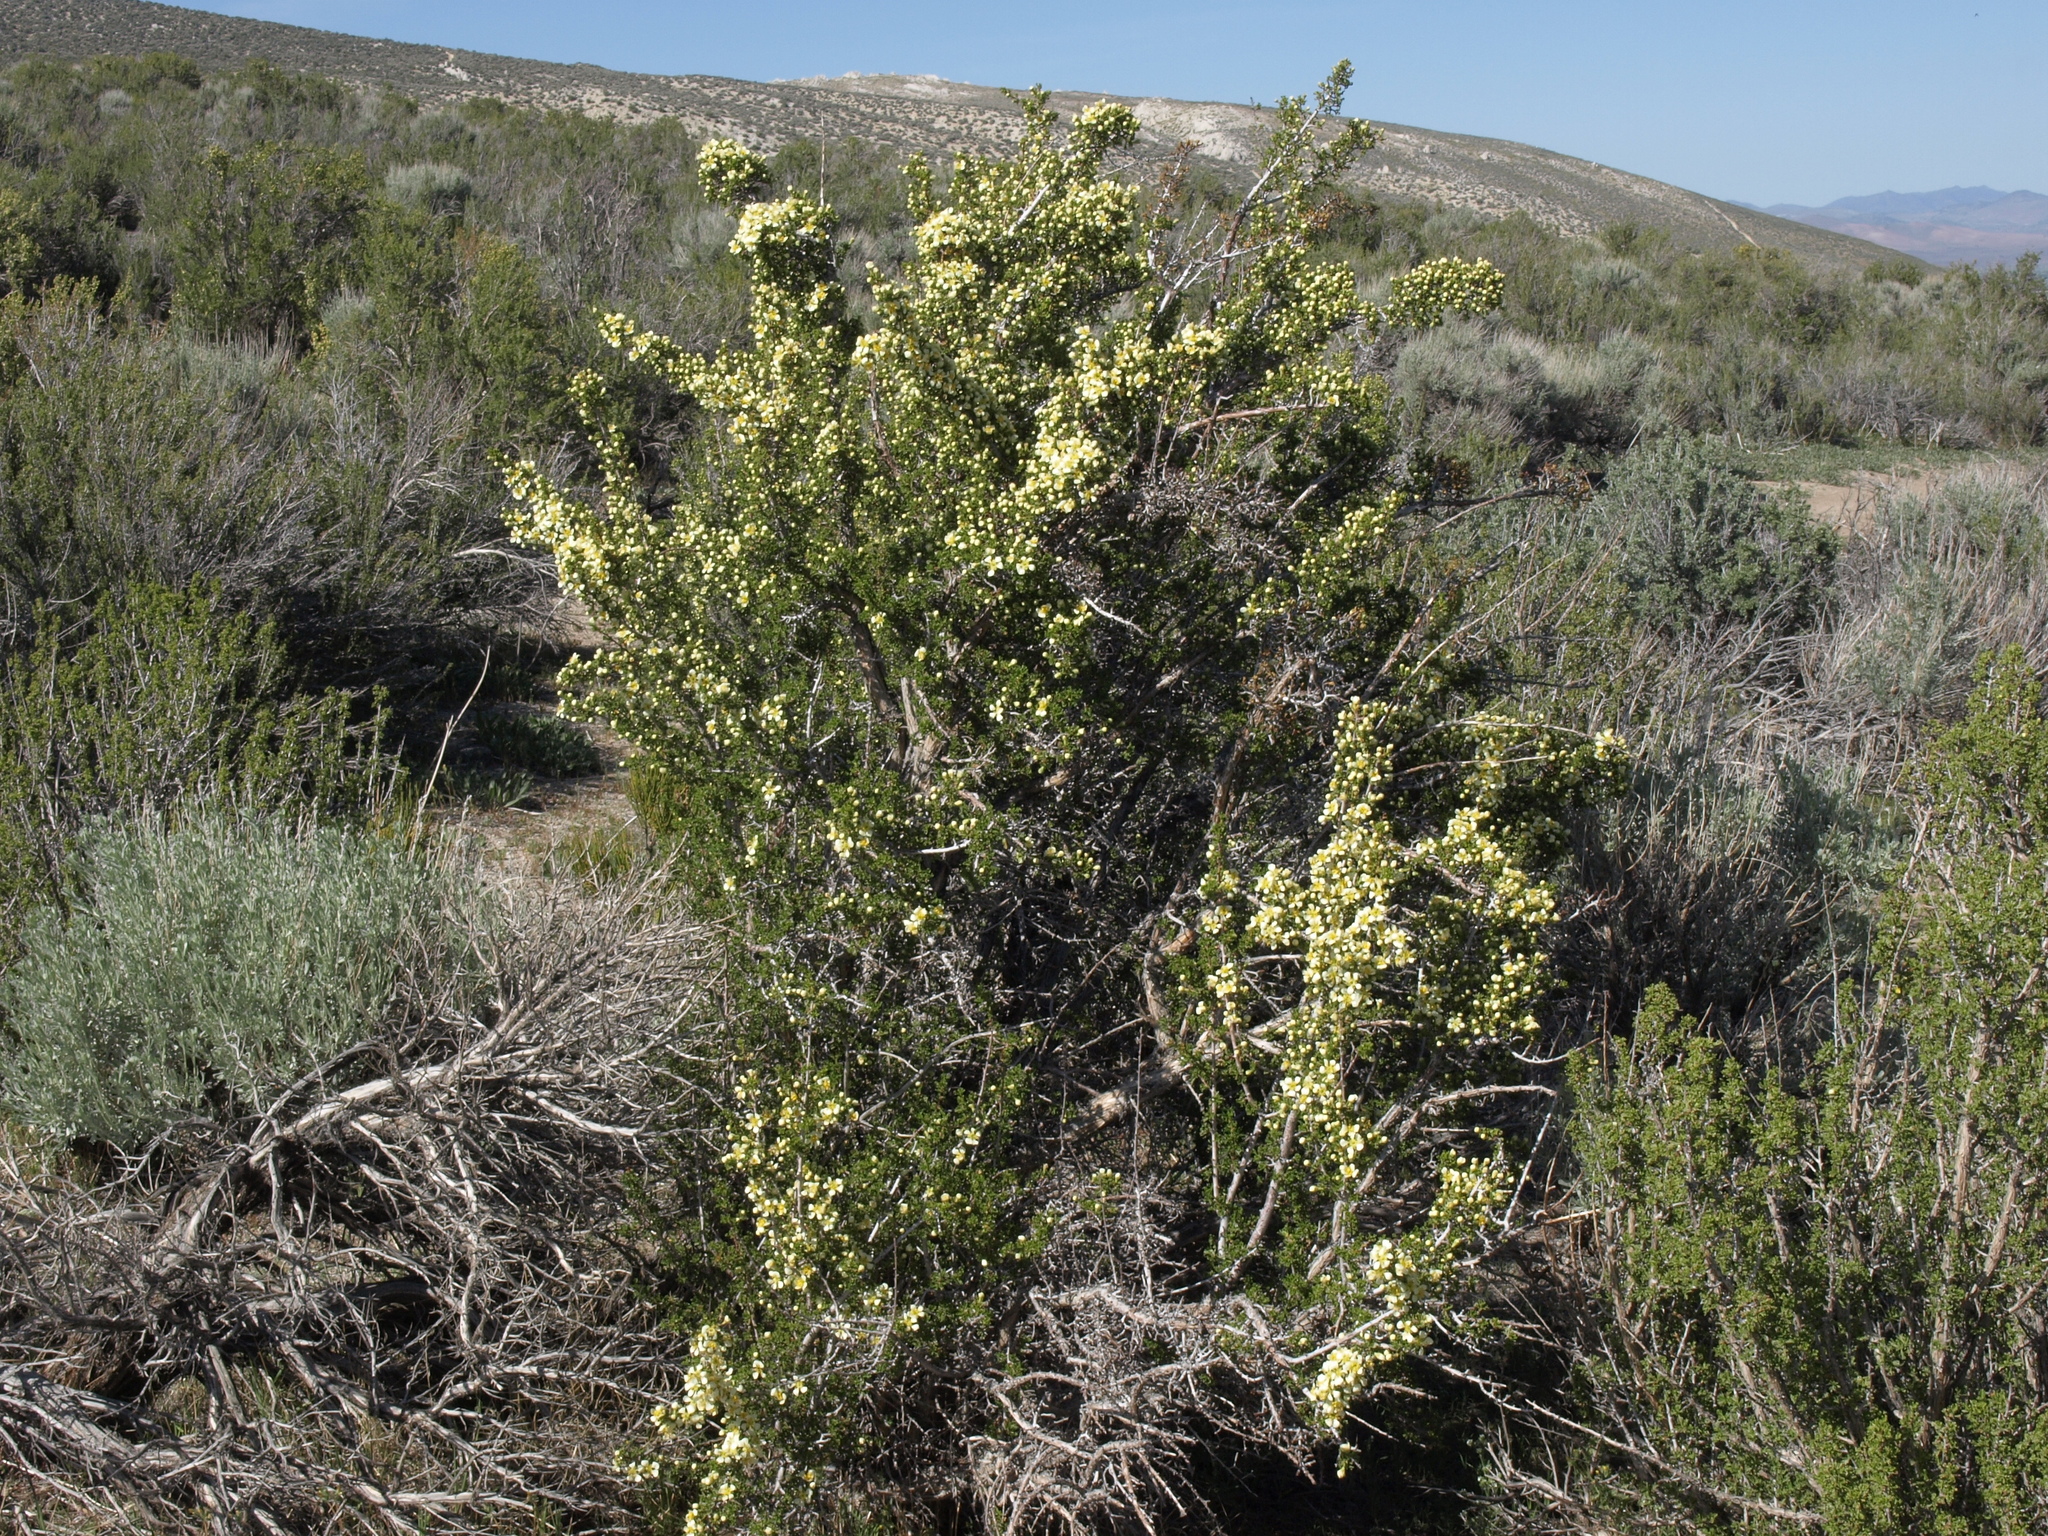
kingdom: Plantae
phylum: Tracheophyta
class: Magnoliopsida
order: Rosales
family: Rosaceae
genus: Purshia
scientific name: Purshia glandulosa
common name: Desert bitterbrush
